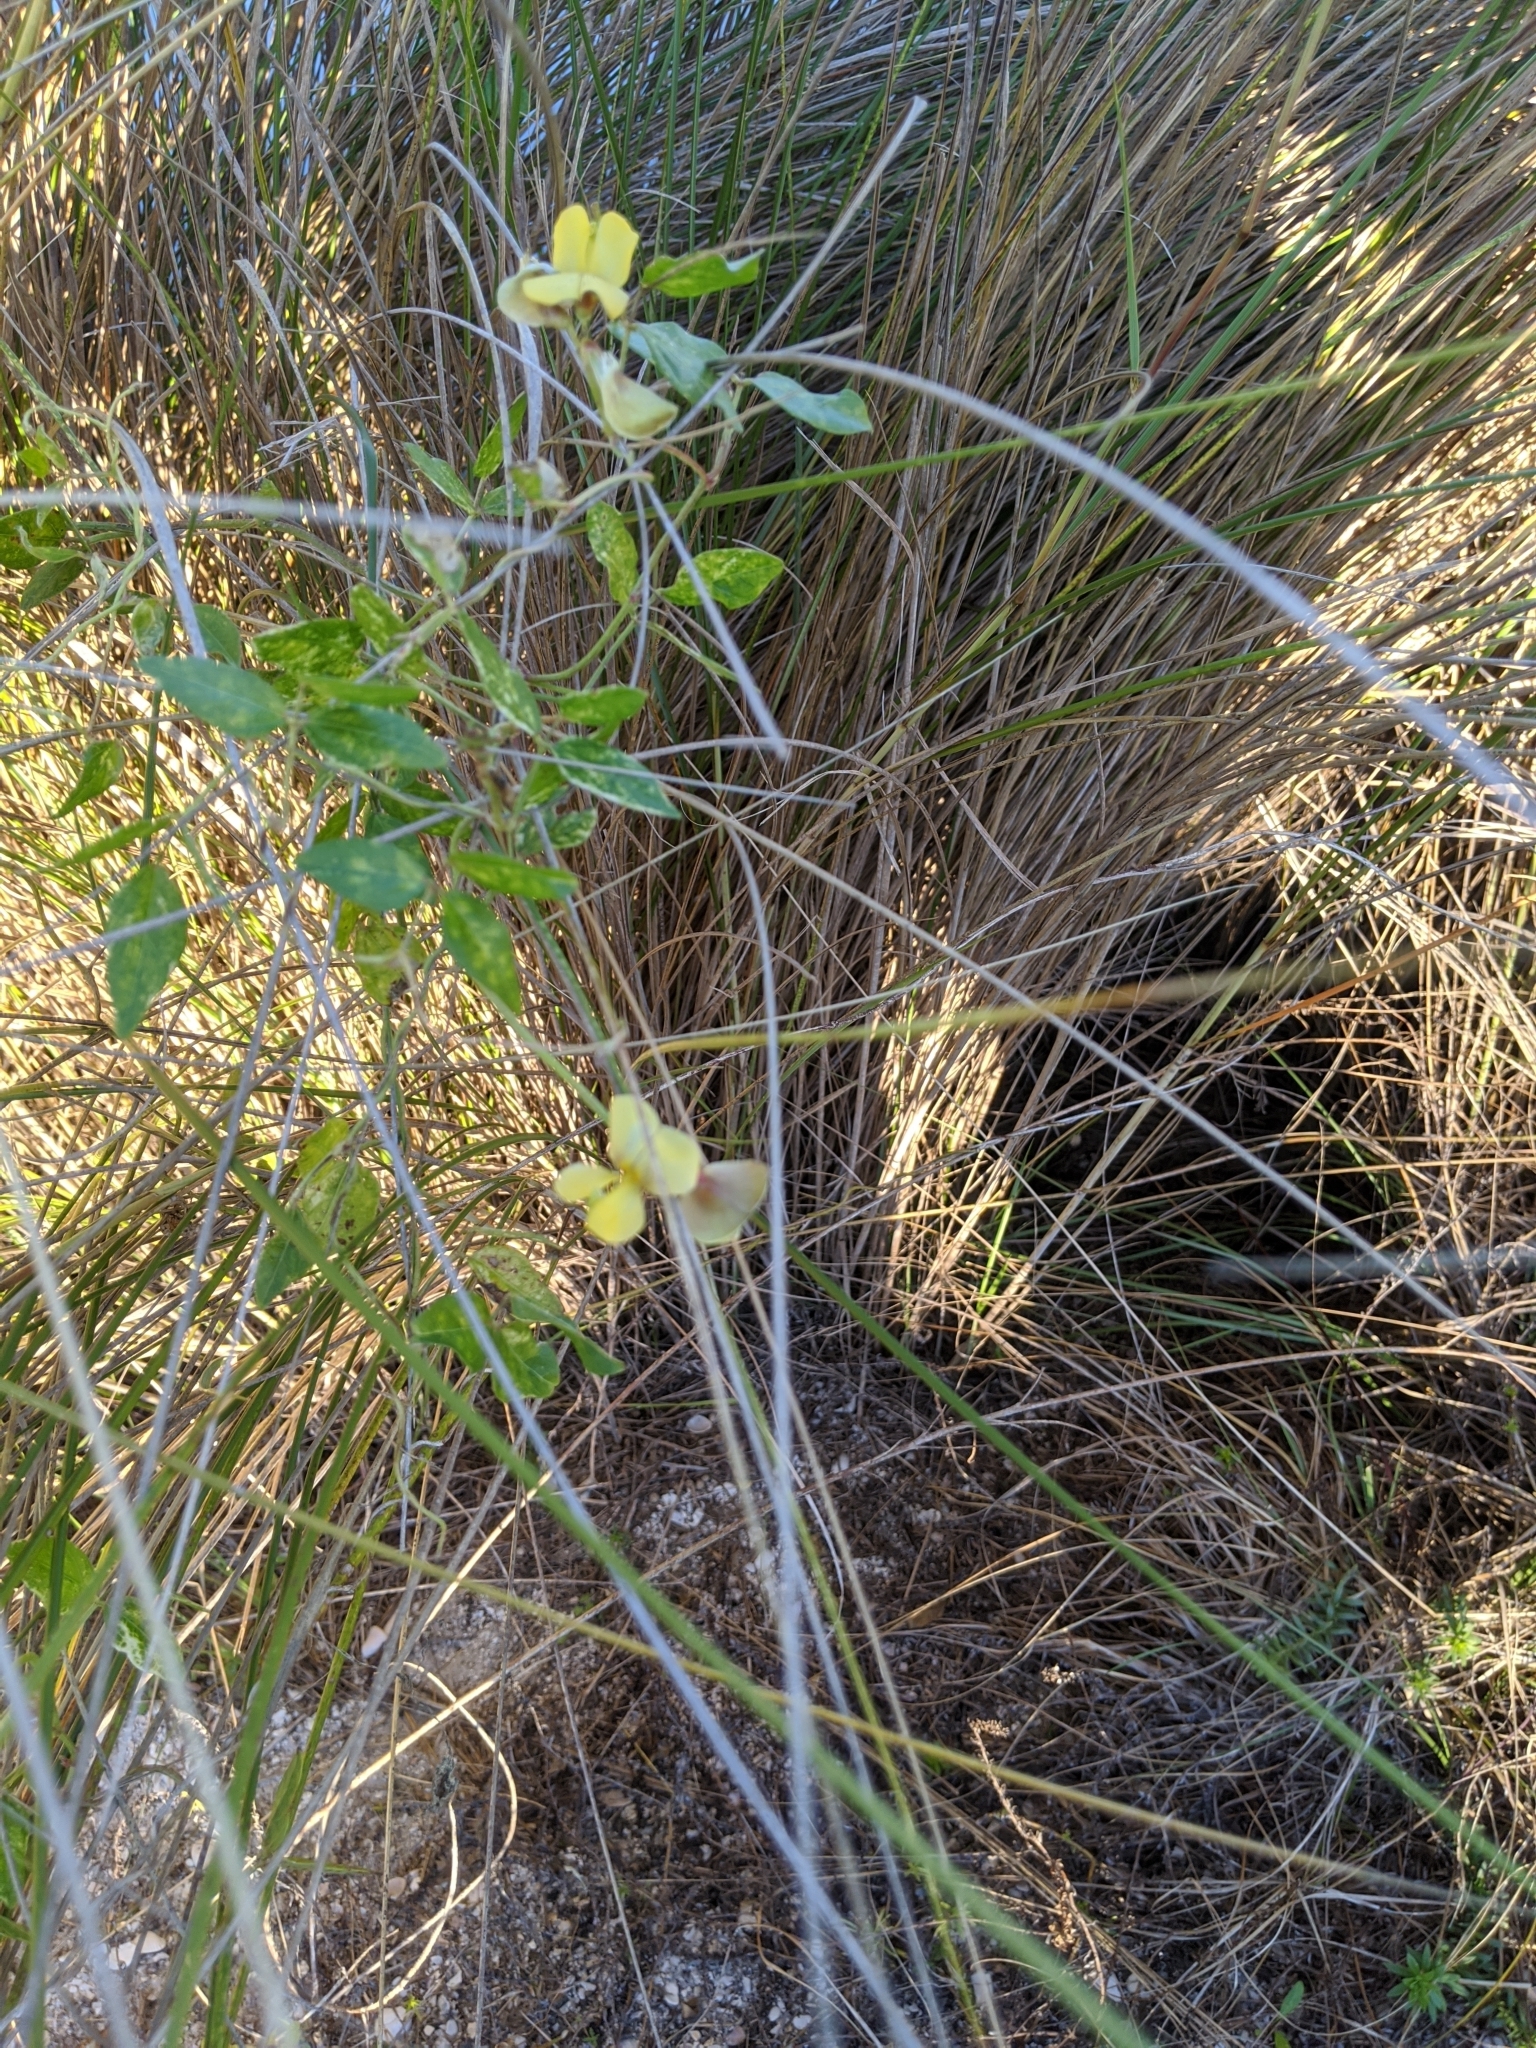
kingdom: Plantae
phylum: Tracheophyta
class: Magnoliopsida
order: Fabales
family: Fabaceae
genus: Vigna
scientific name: Vigna luteola
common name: Hairypod cowpea
